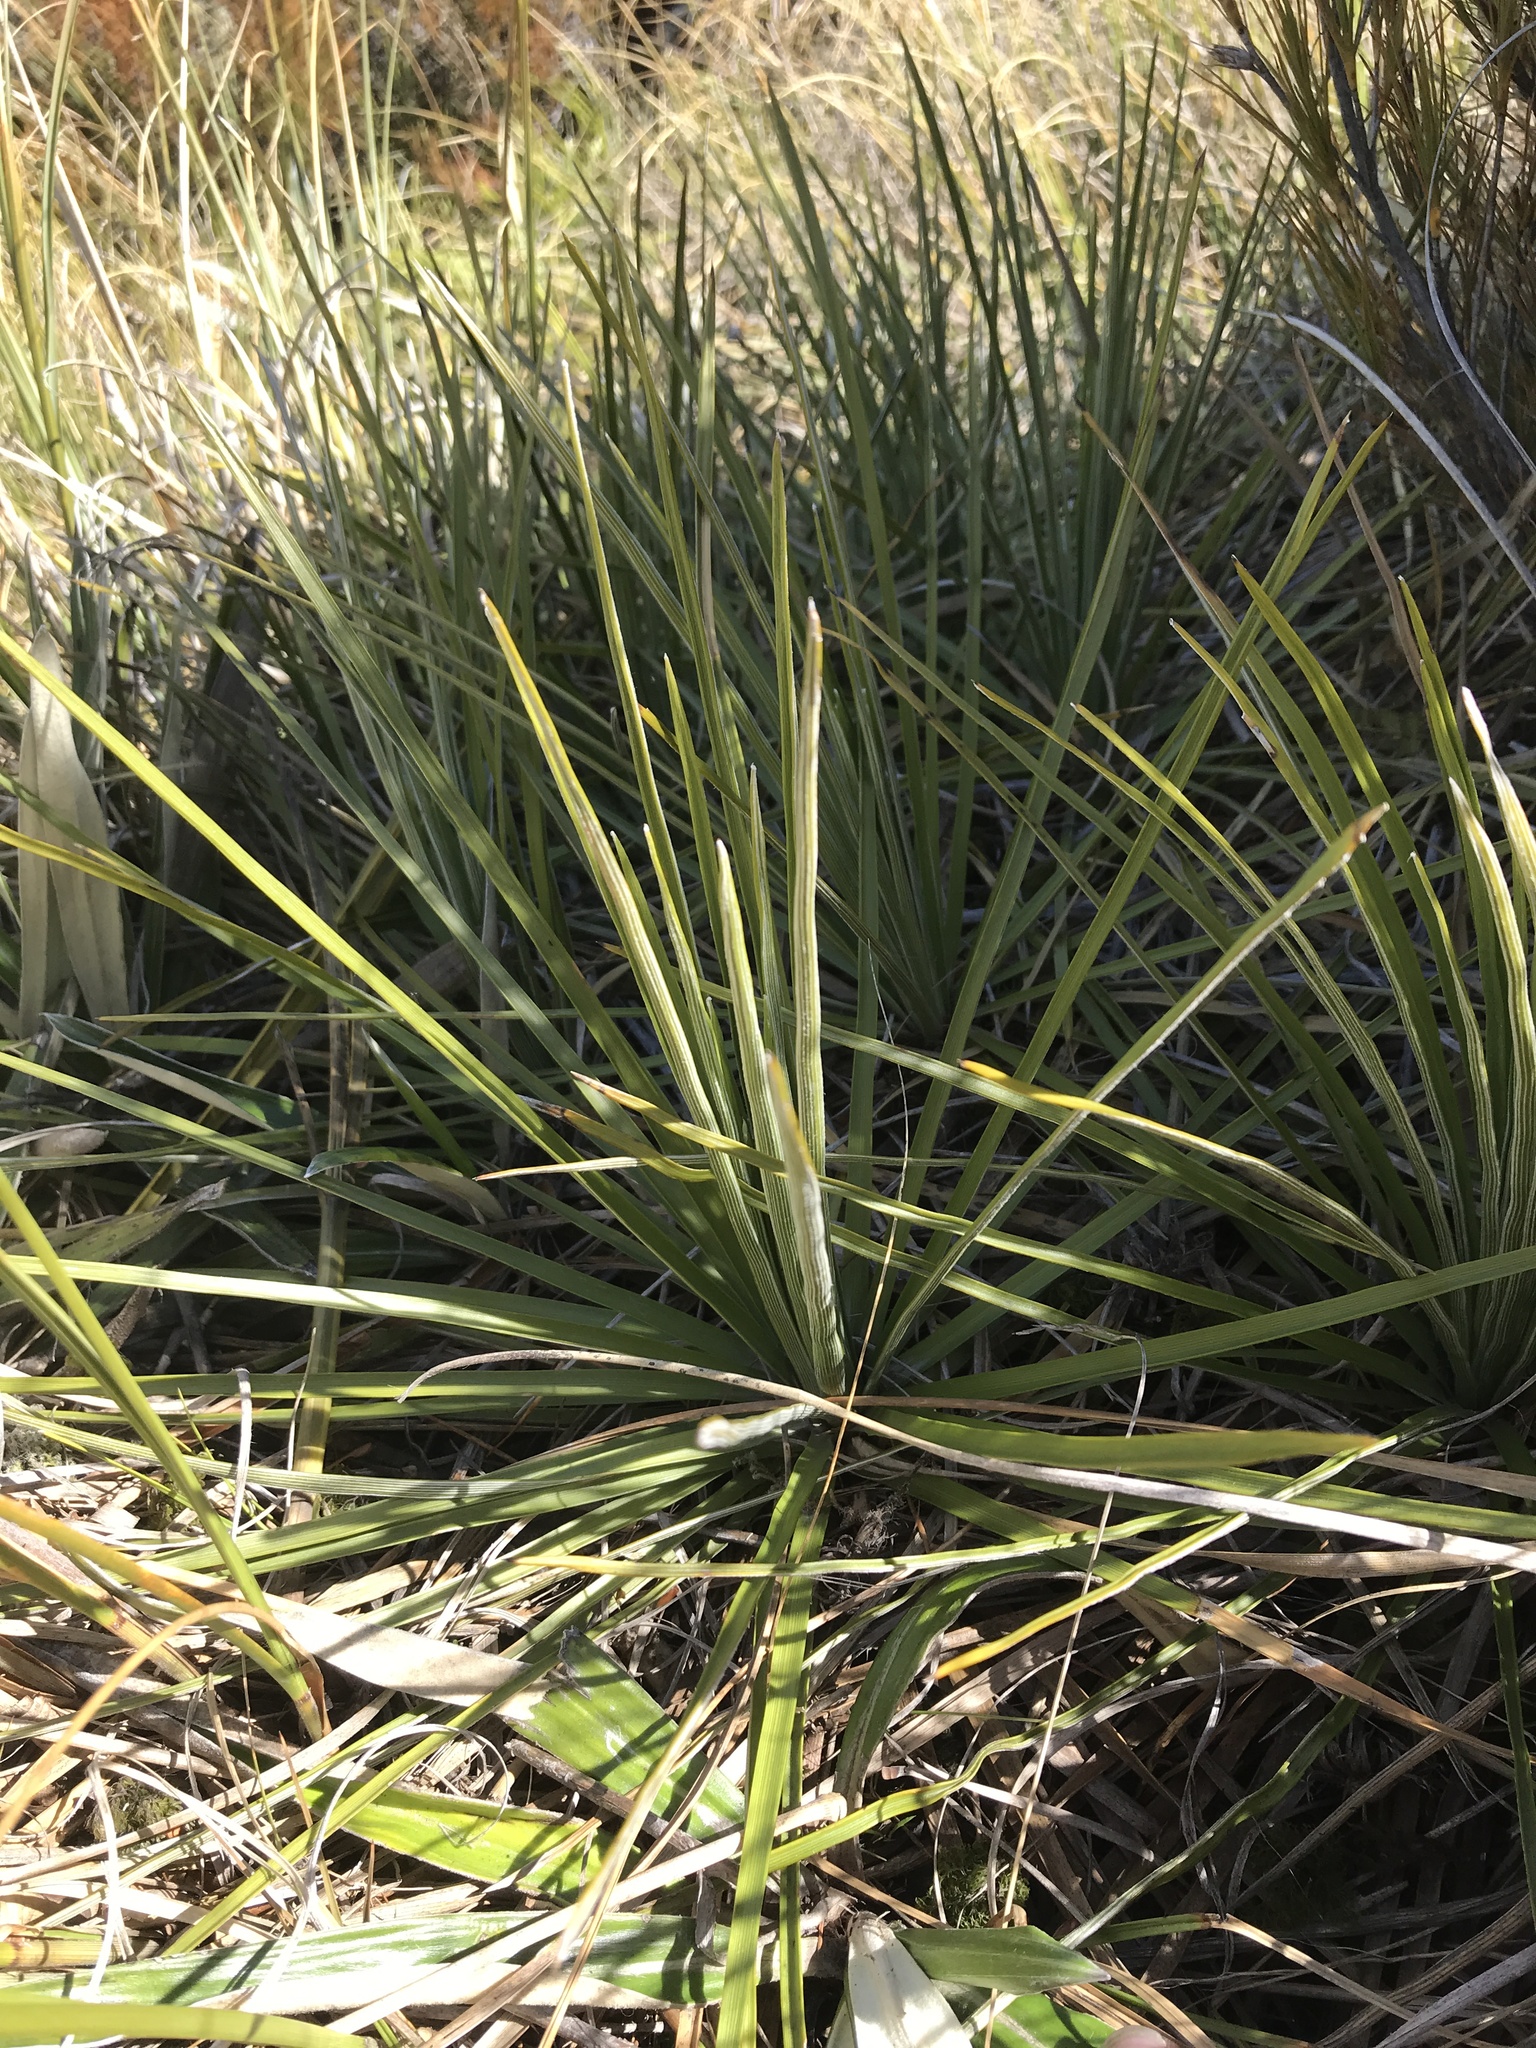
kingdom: Plantae
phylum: Tracheophyta
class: Magnoliopsida
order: Asterales
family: Asteraceae
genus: Celmisia
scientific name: Celmisia lyallii
